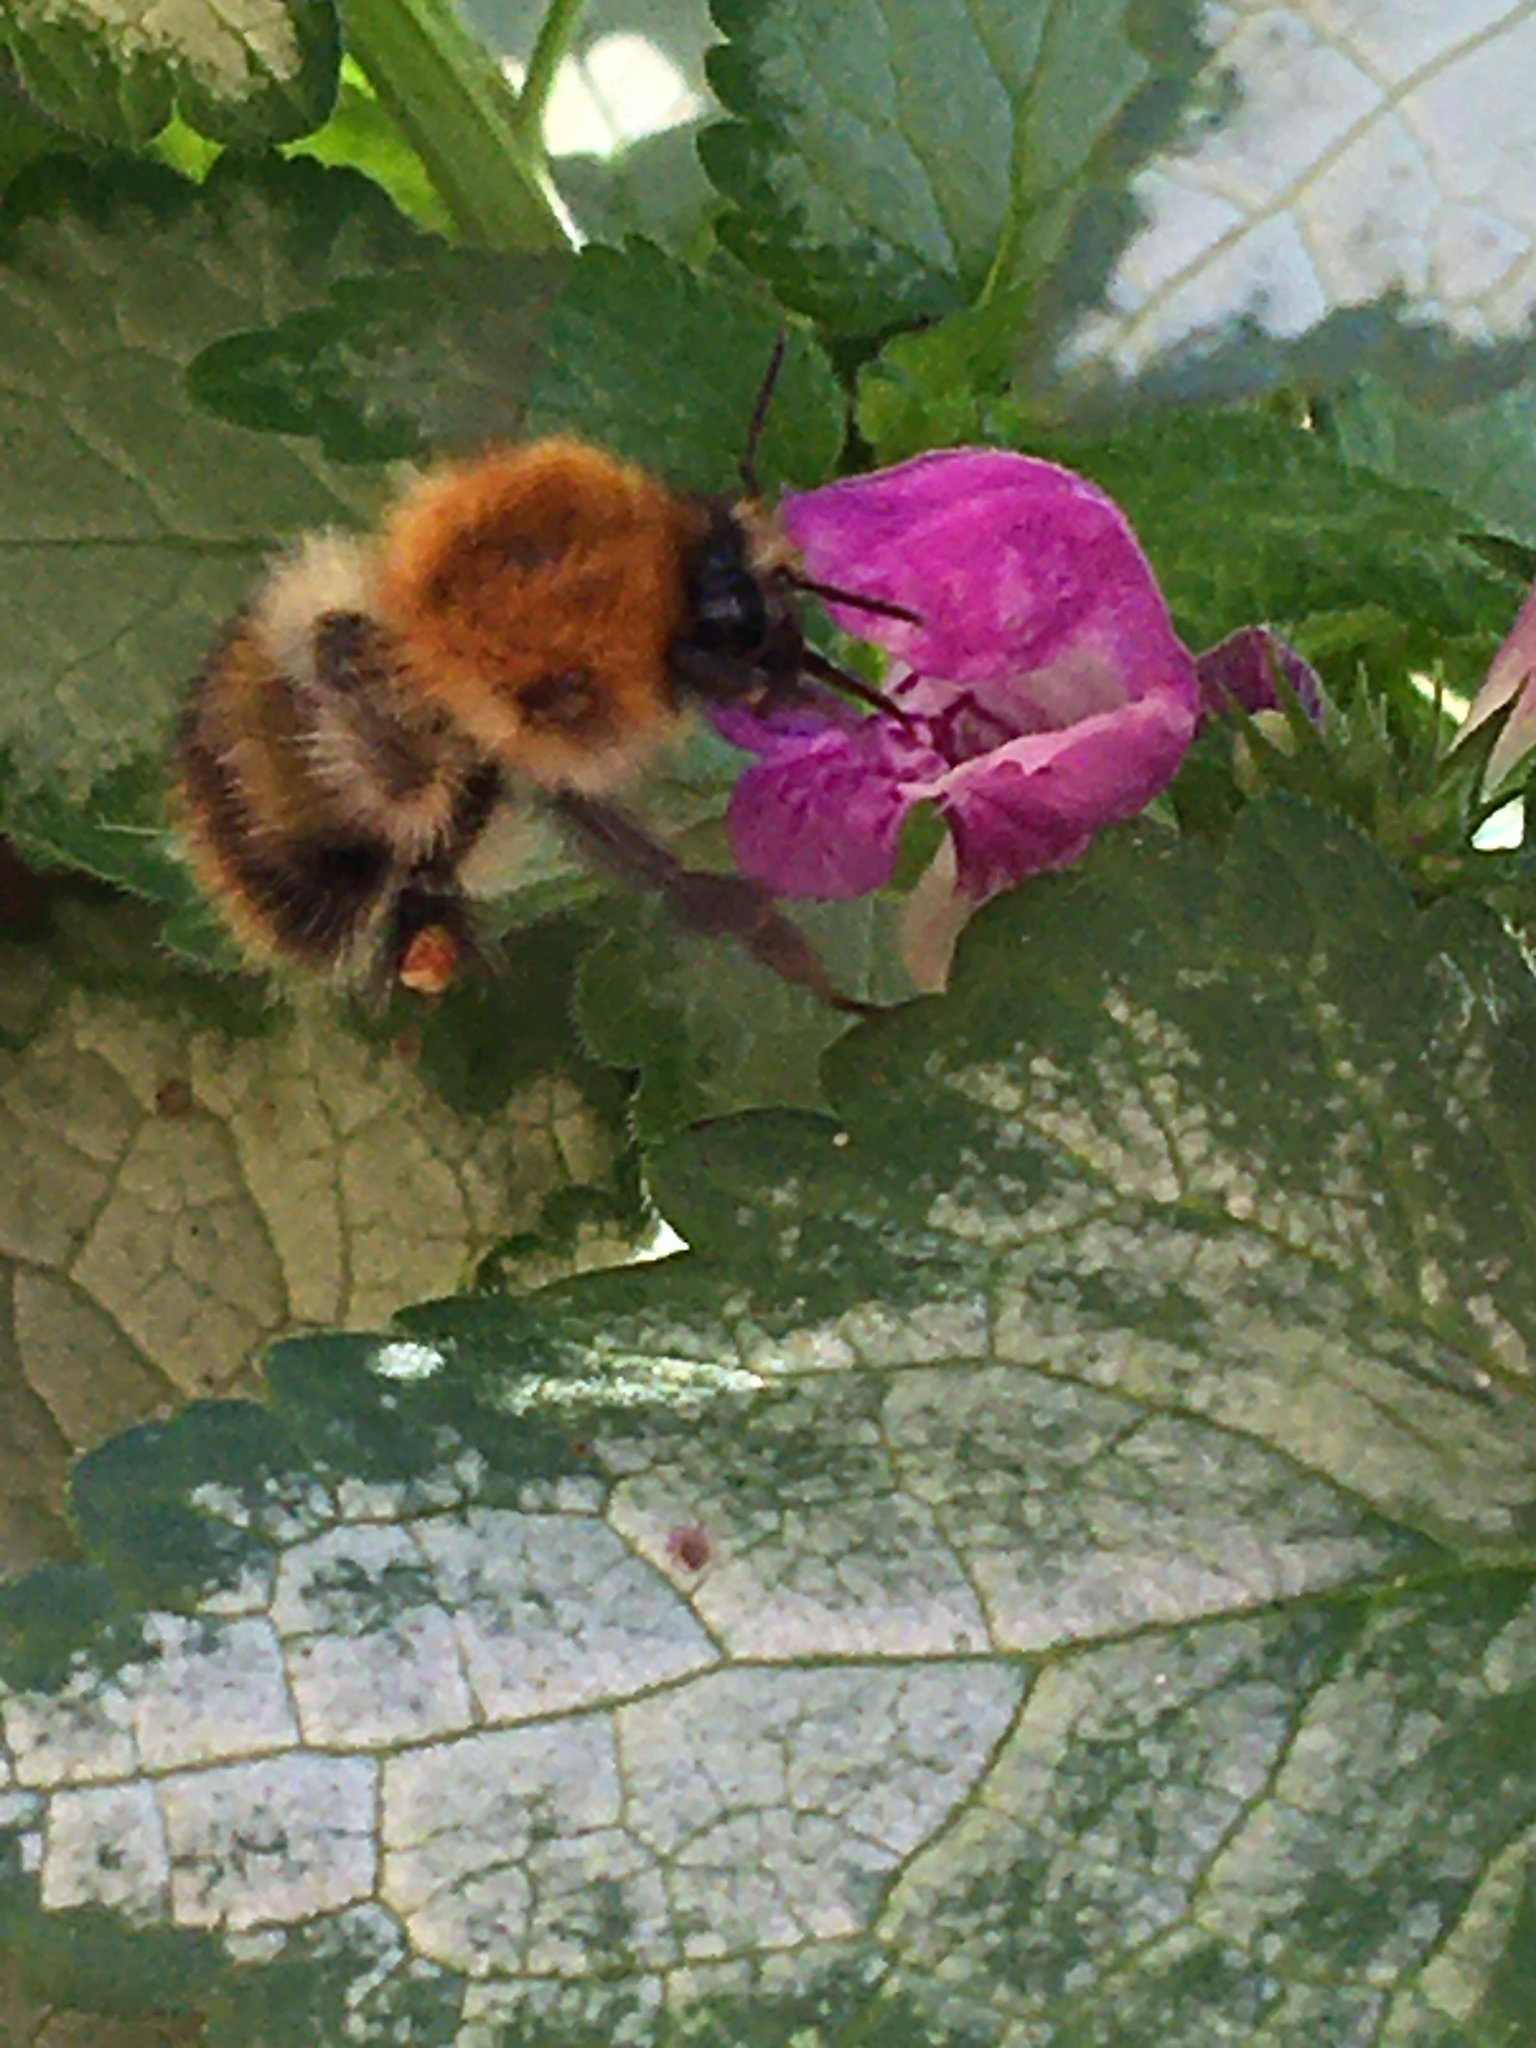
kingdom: Animalia
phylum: Arthropoda
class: Insecta
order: Hymenoptera
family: Apidae
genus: Bombus
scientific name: Bombus pascuorum
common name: Common carder bee
